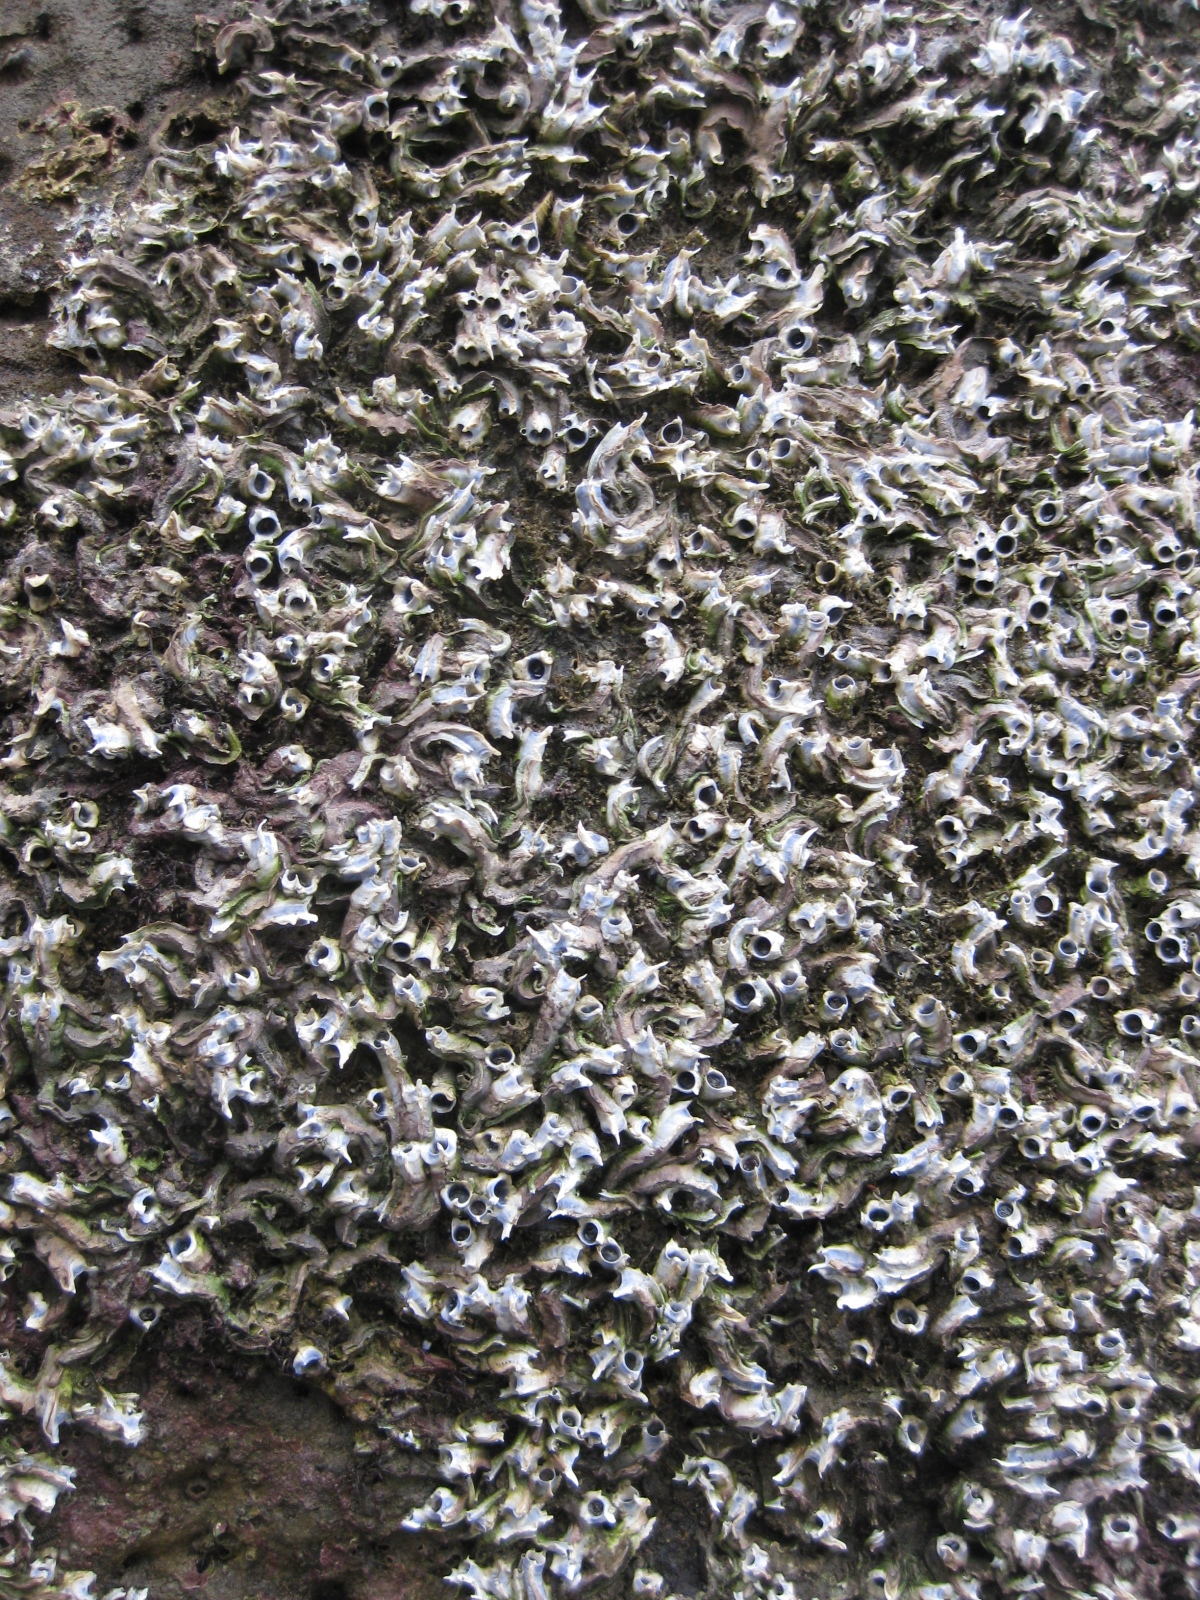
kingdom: Animalia
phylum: Annelida
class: Polychaeta
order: Sabellida
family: Serpulidae
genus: Spirobranchus
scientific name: Spirobranchus cariniferus
